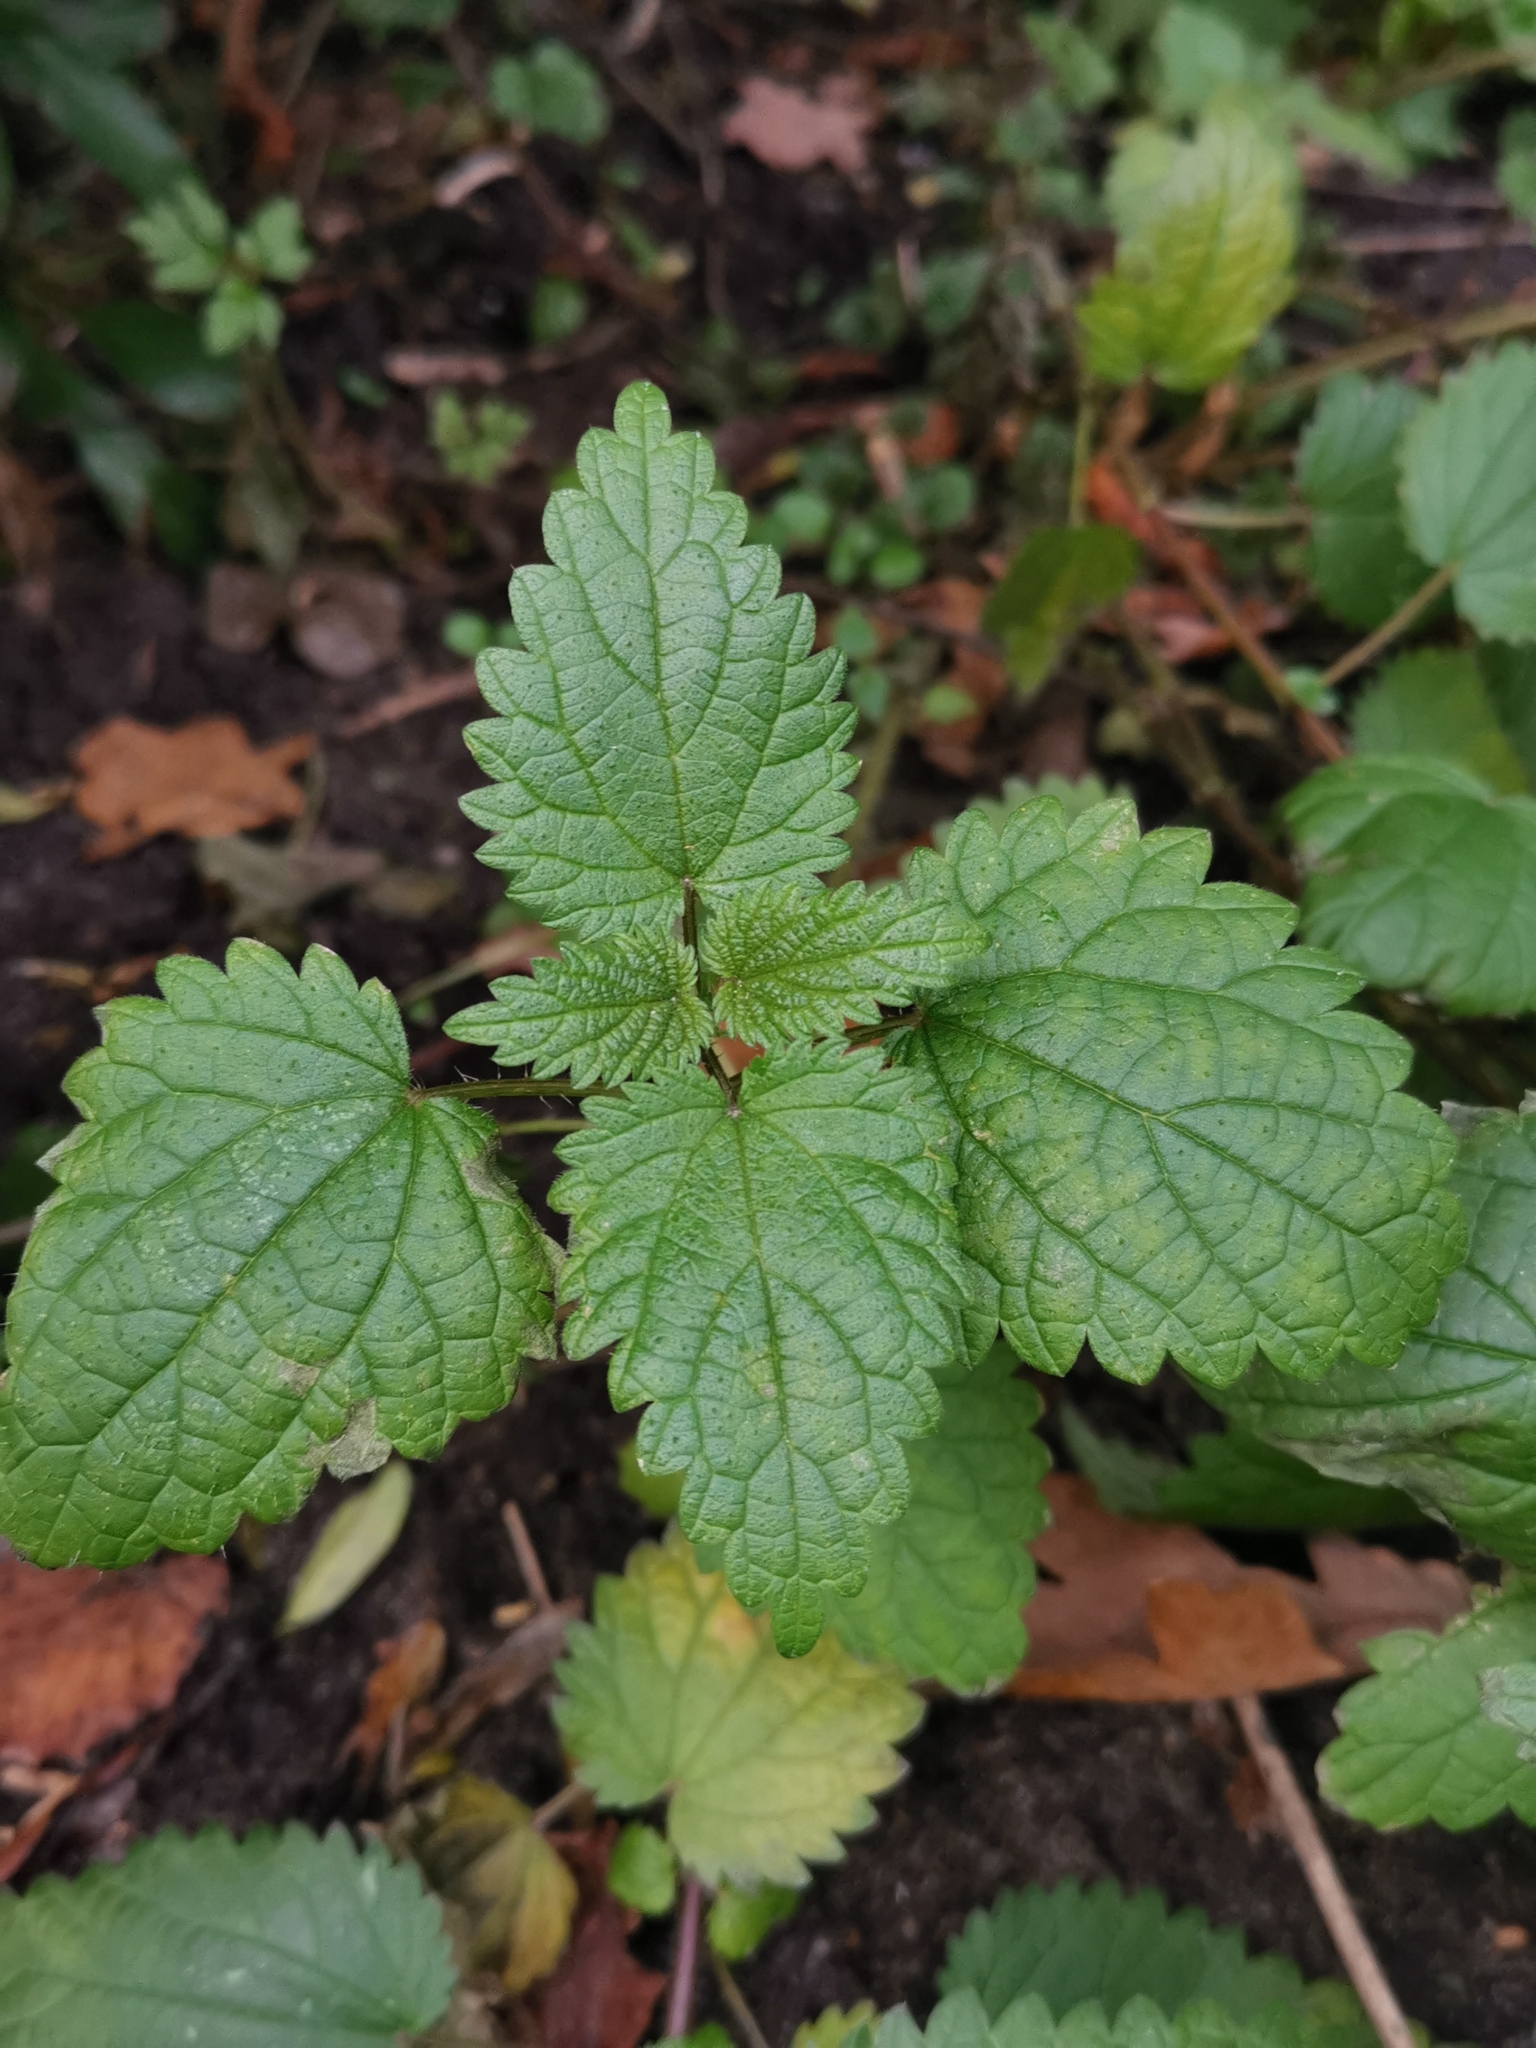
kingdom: Plantae
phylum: Tracheophyta
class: Magnoliopsida
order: Rosales
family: Urticaceae
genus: Urtica
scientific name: Urtica dioica
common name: Common nettle
